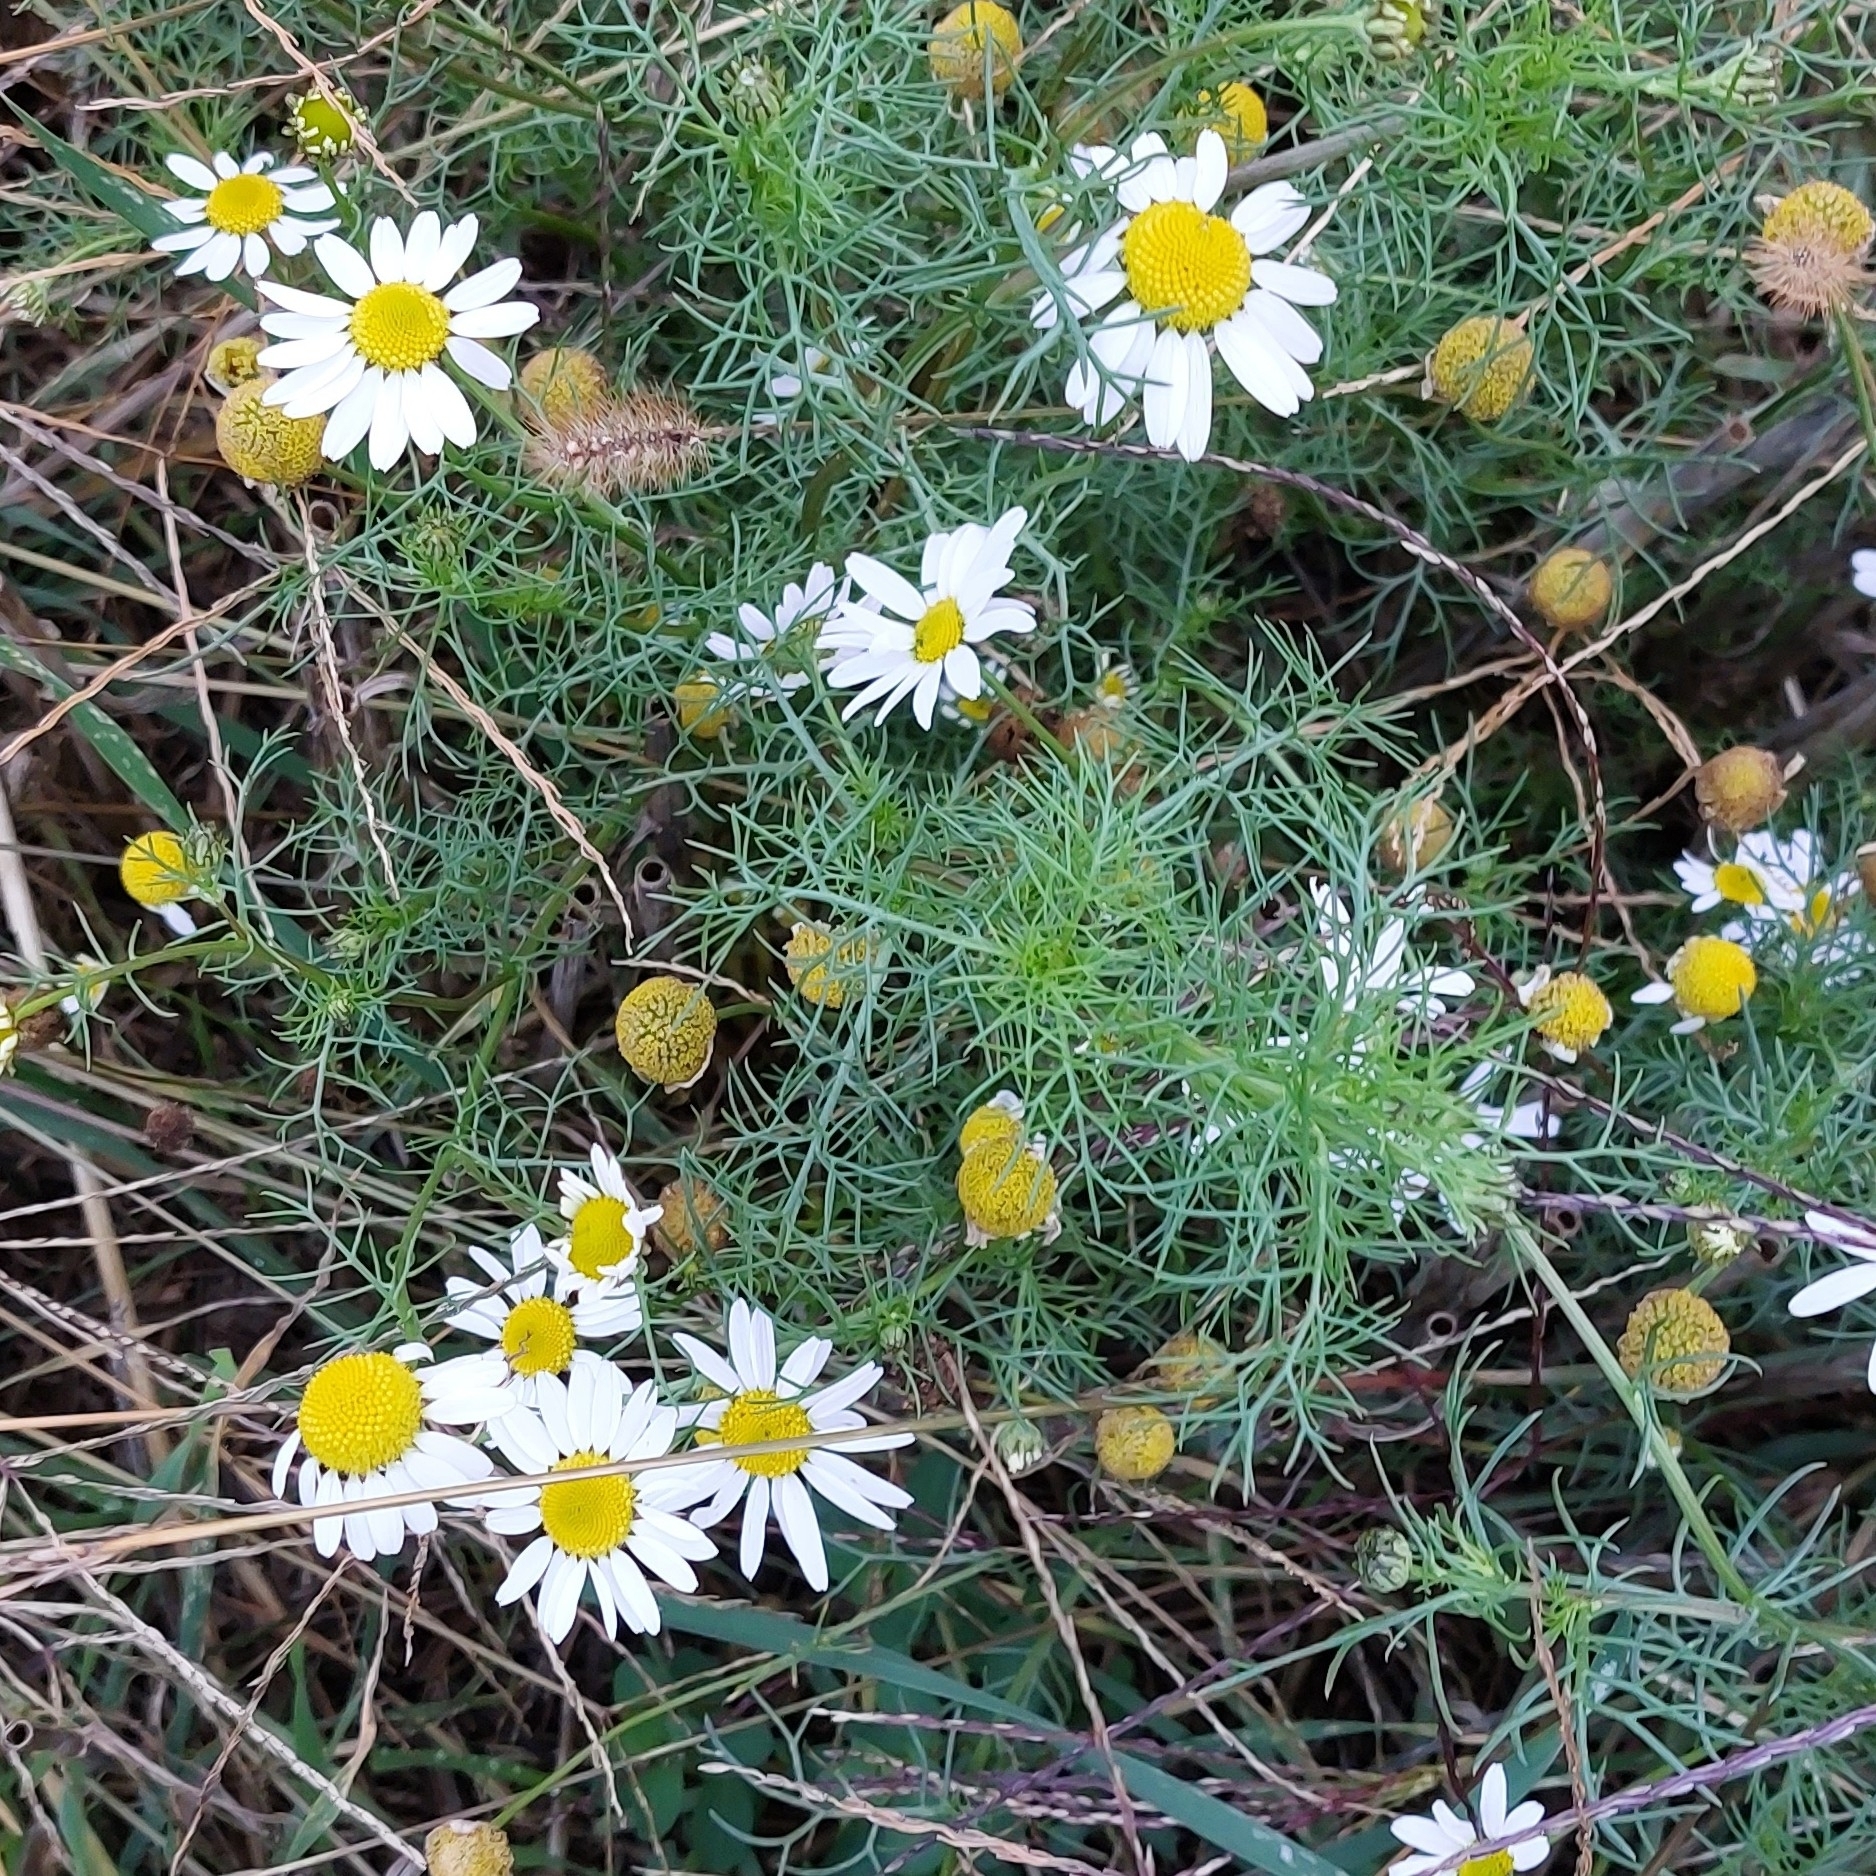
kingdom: Plantae
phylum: Tracheophyta
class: Magnoliopsida
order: Asterales
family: Asteraceae
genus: Tripleurospermum
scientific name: Tripleurospermum inodorum
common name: Scentless mayweed
